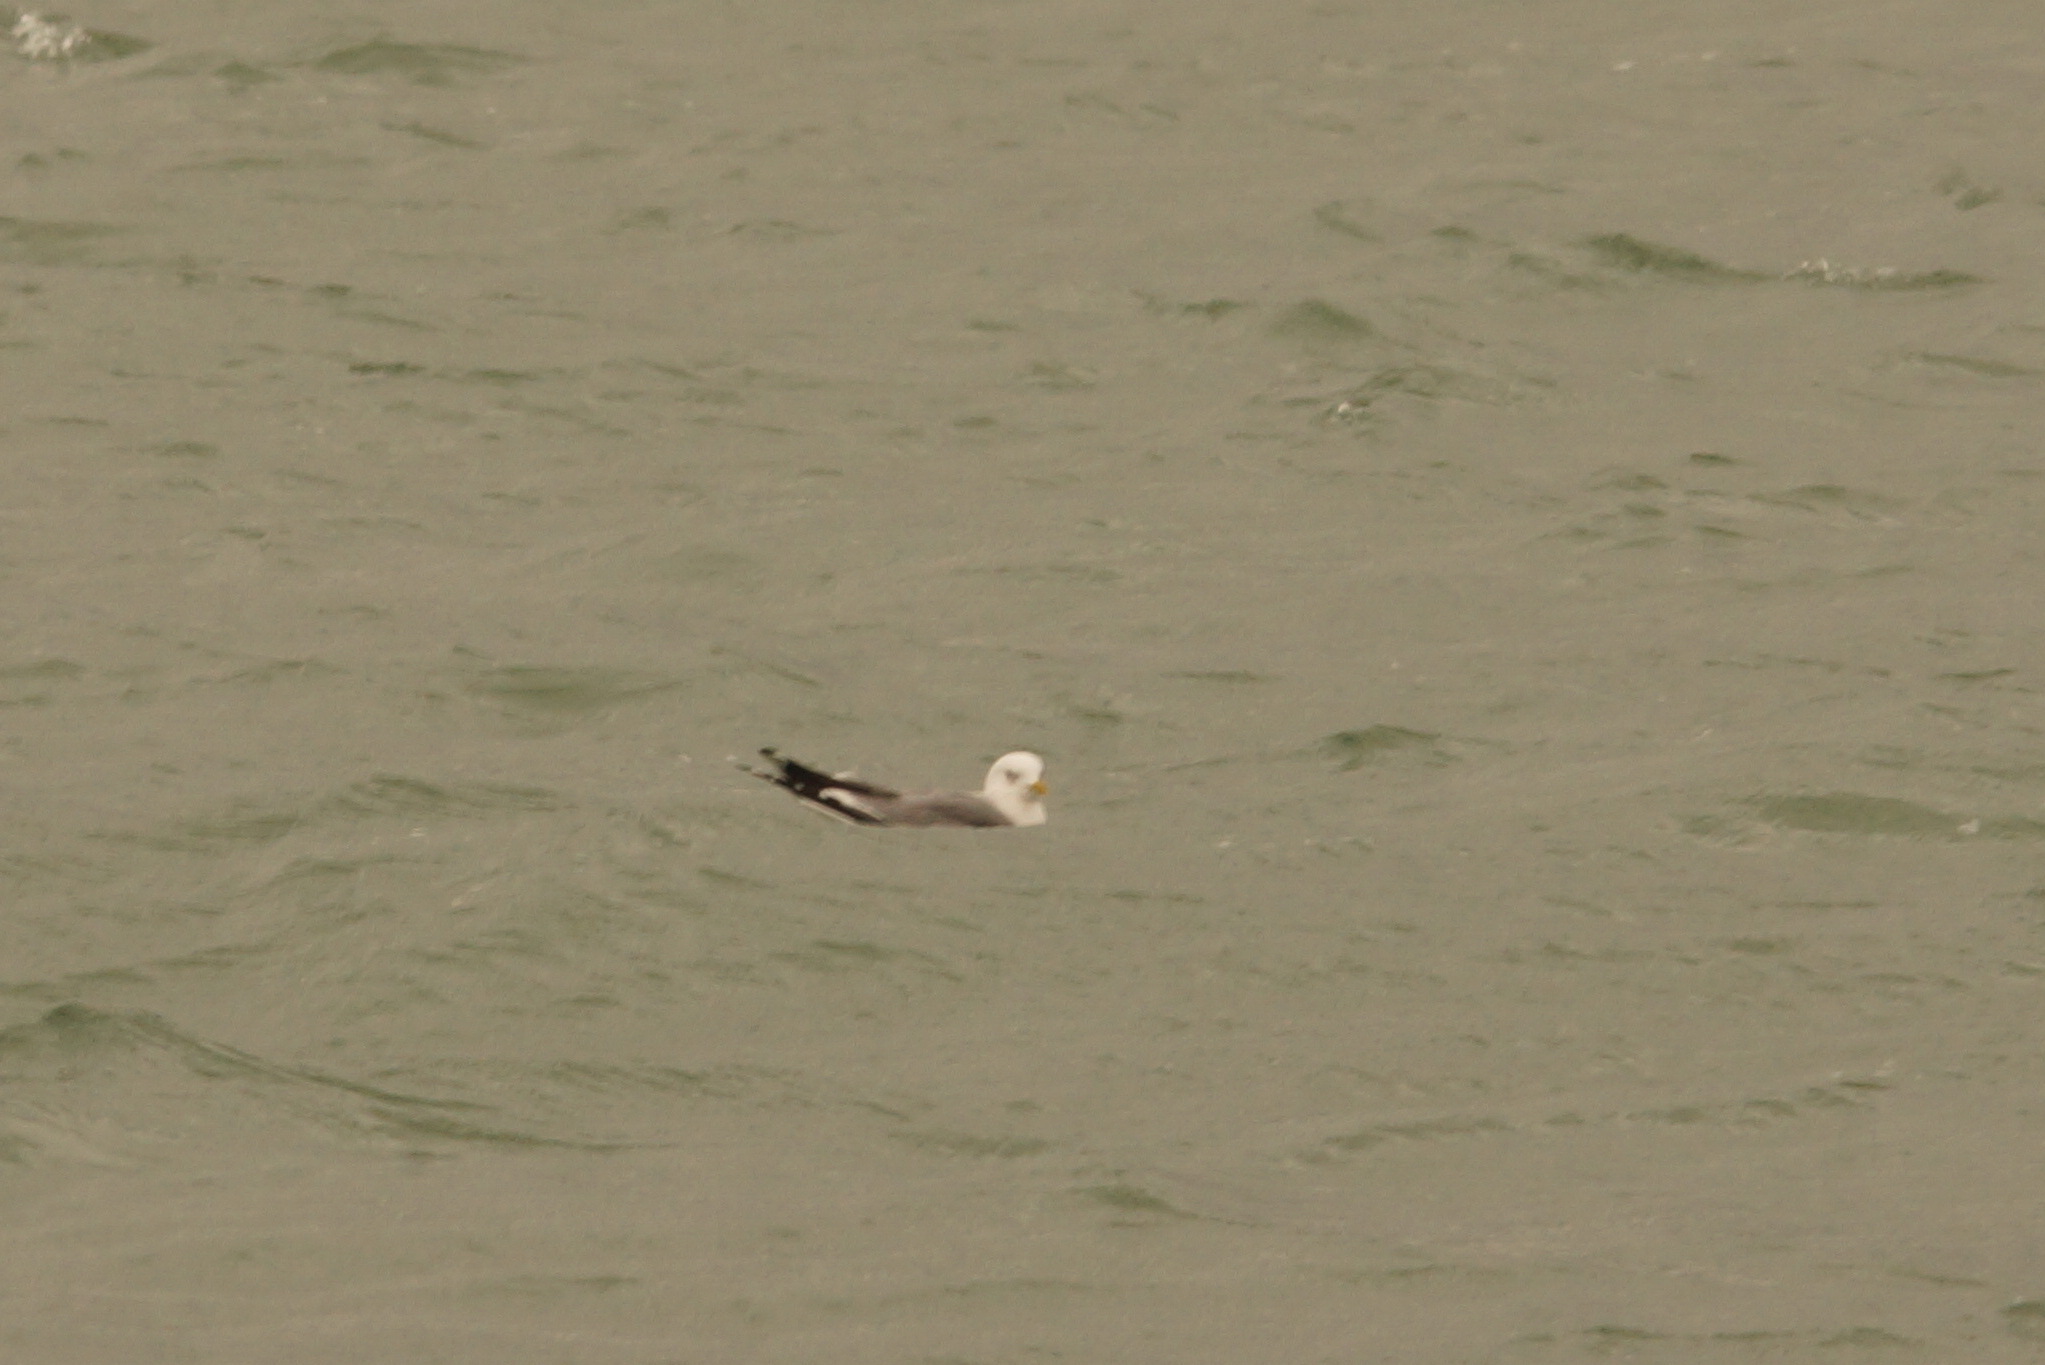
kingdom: Animalia
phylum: Chordata
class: Aves
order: Charadriiformes
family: Laridae
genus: Larus
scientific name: Larus canus
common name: Mew gull
